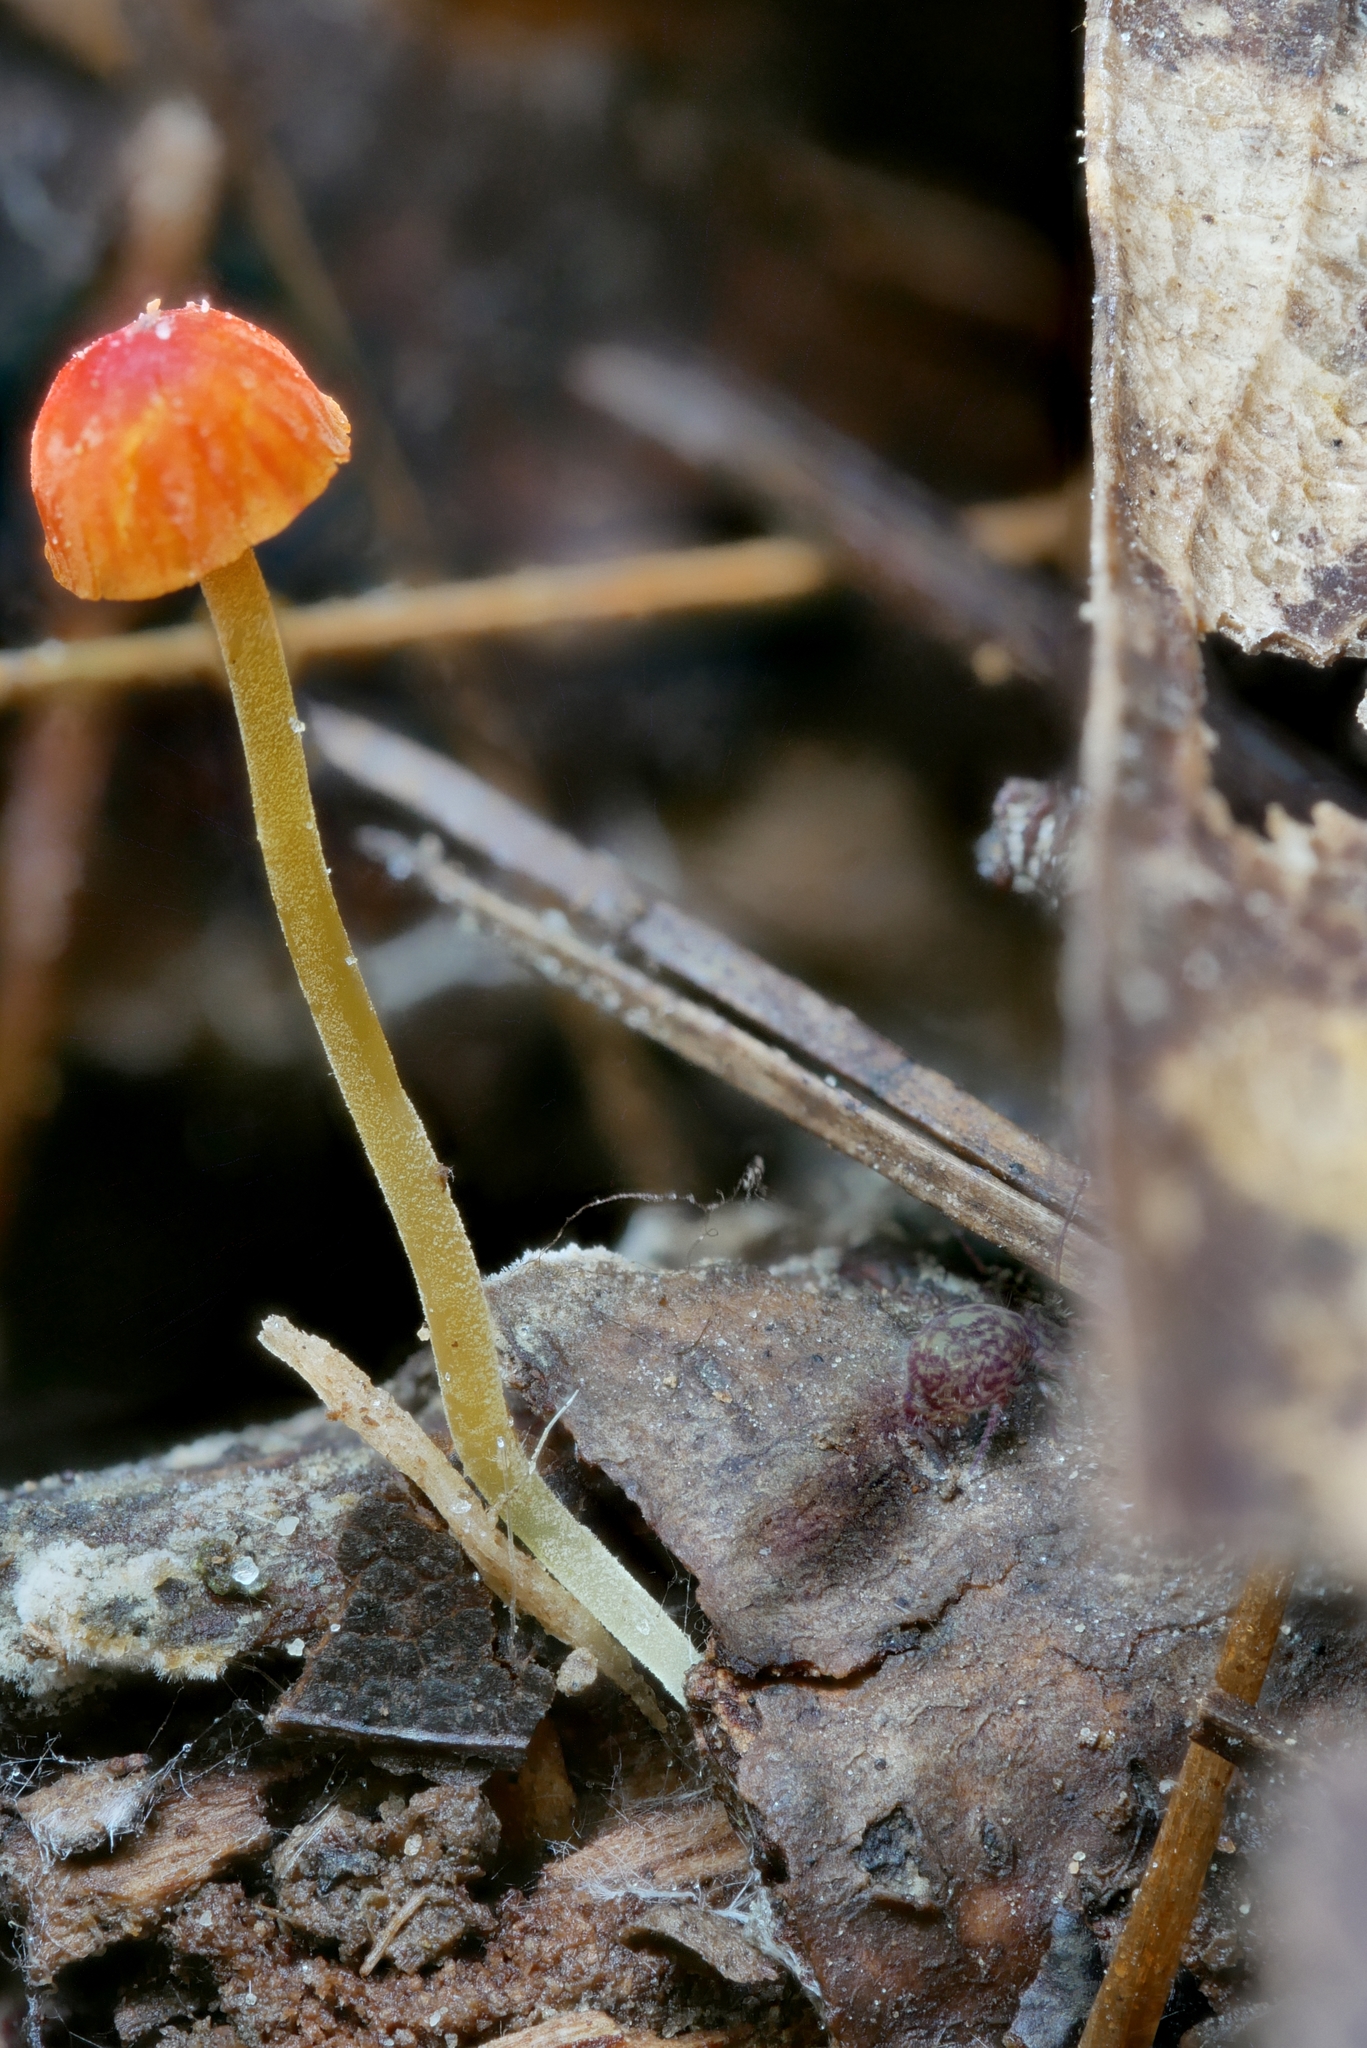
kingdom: Fungi
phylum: Basidiomycota
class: Agaricomycetes
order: Agaricales
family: Mycenaceae
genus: Mycena
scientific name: Mycena acicula
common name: Orange bonnet
